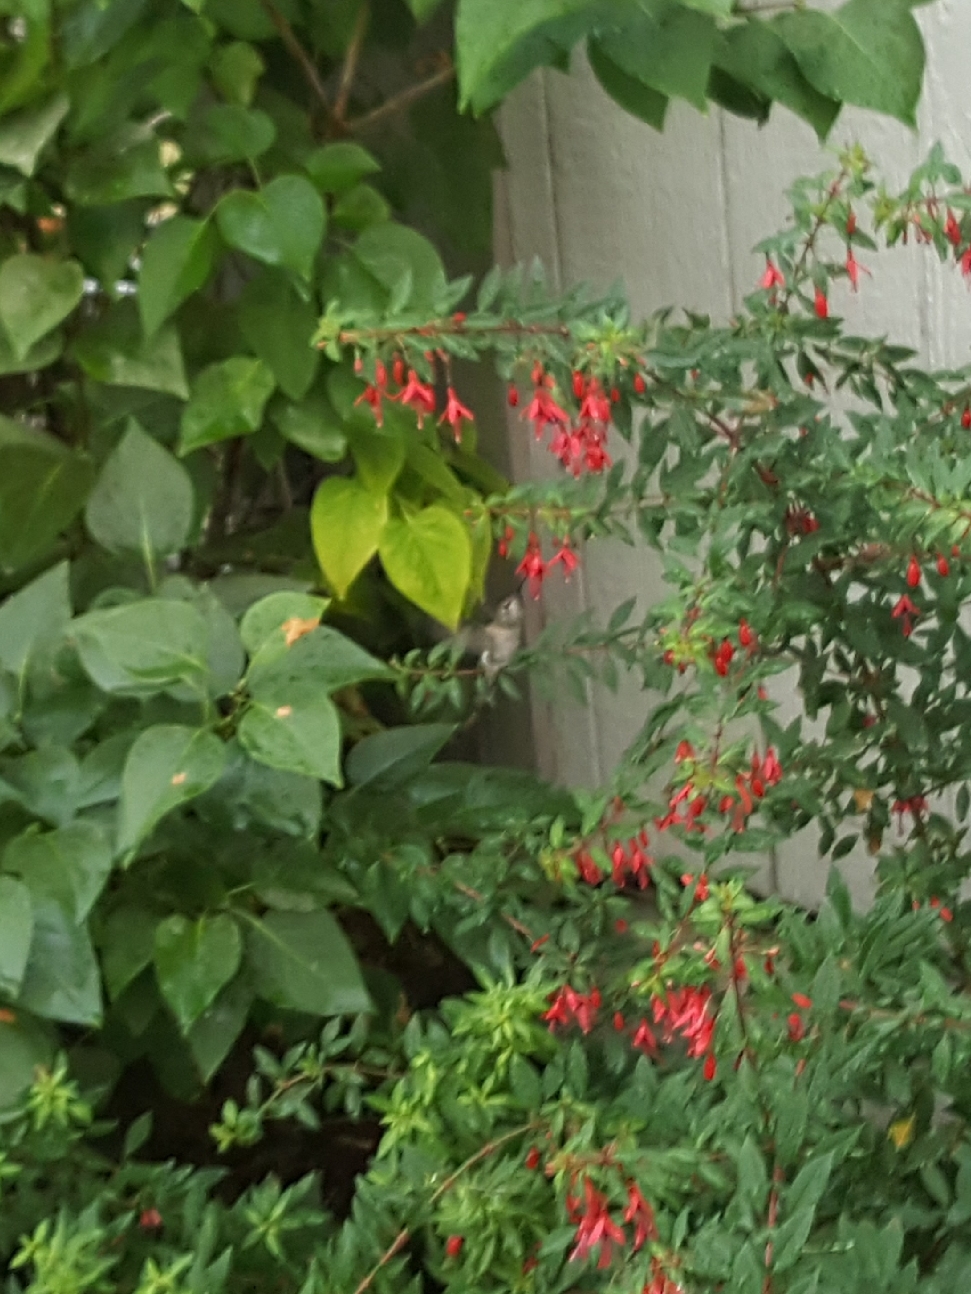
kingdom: Animalia
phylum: Chordata
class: Aves
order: Apodiformes
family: Trochilidae
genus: Calypte
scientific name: Calypte anna
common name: Anna's hummingbird
